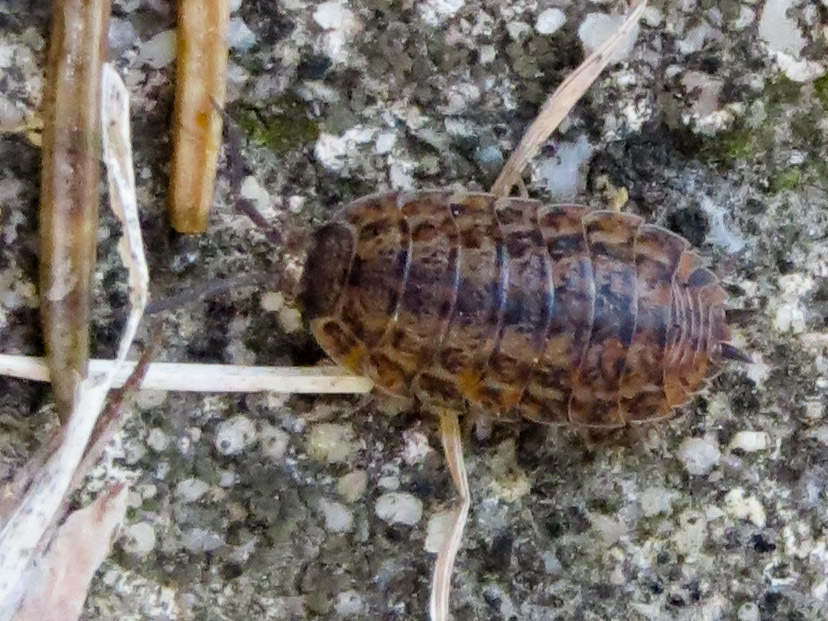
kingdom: Animalia
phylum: Arthropoda
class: Malacostraca
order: Isopoda
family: Trachelipodidae
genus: Trachelipus
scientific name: Trachelipus rathkii
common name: Isopod
